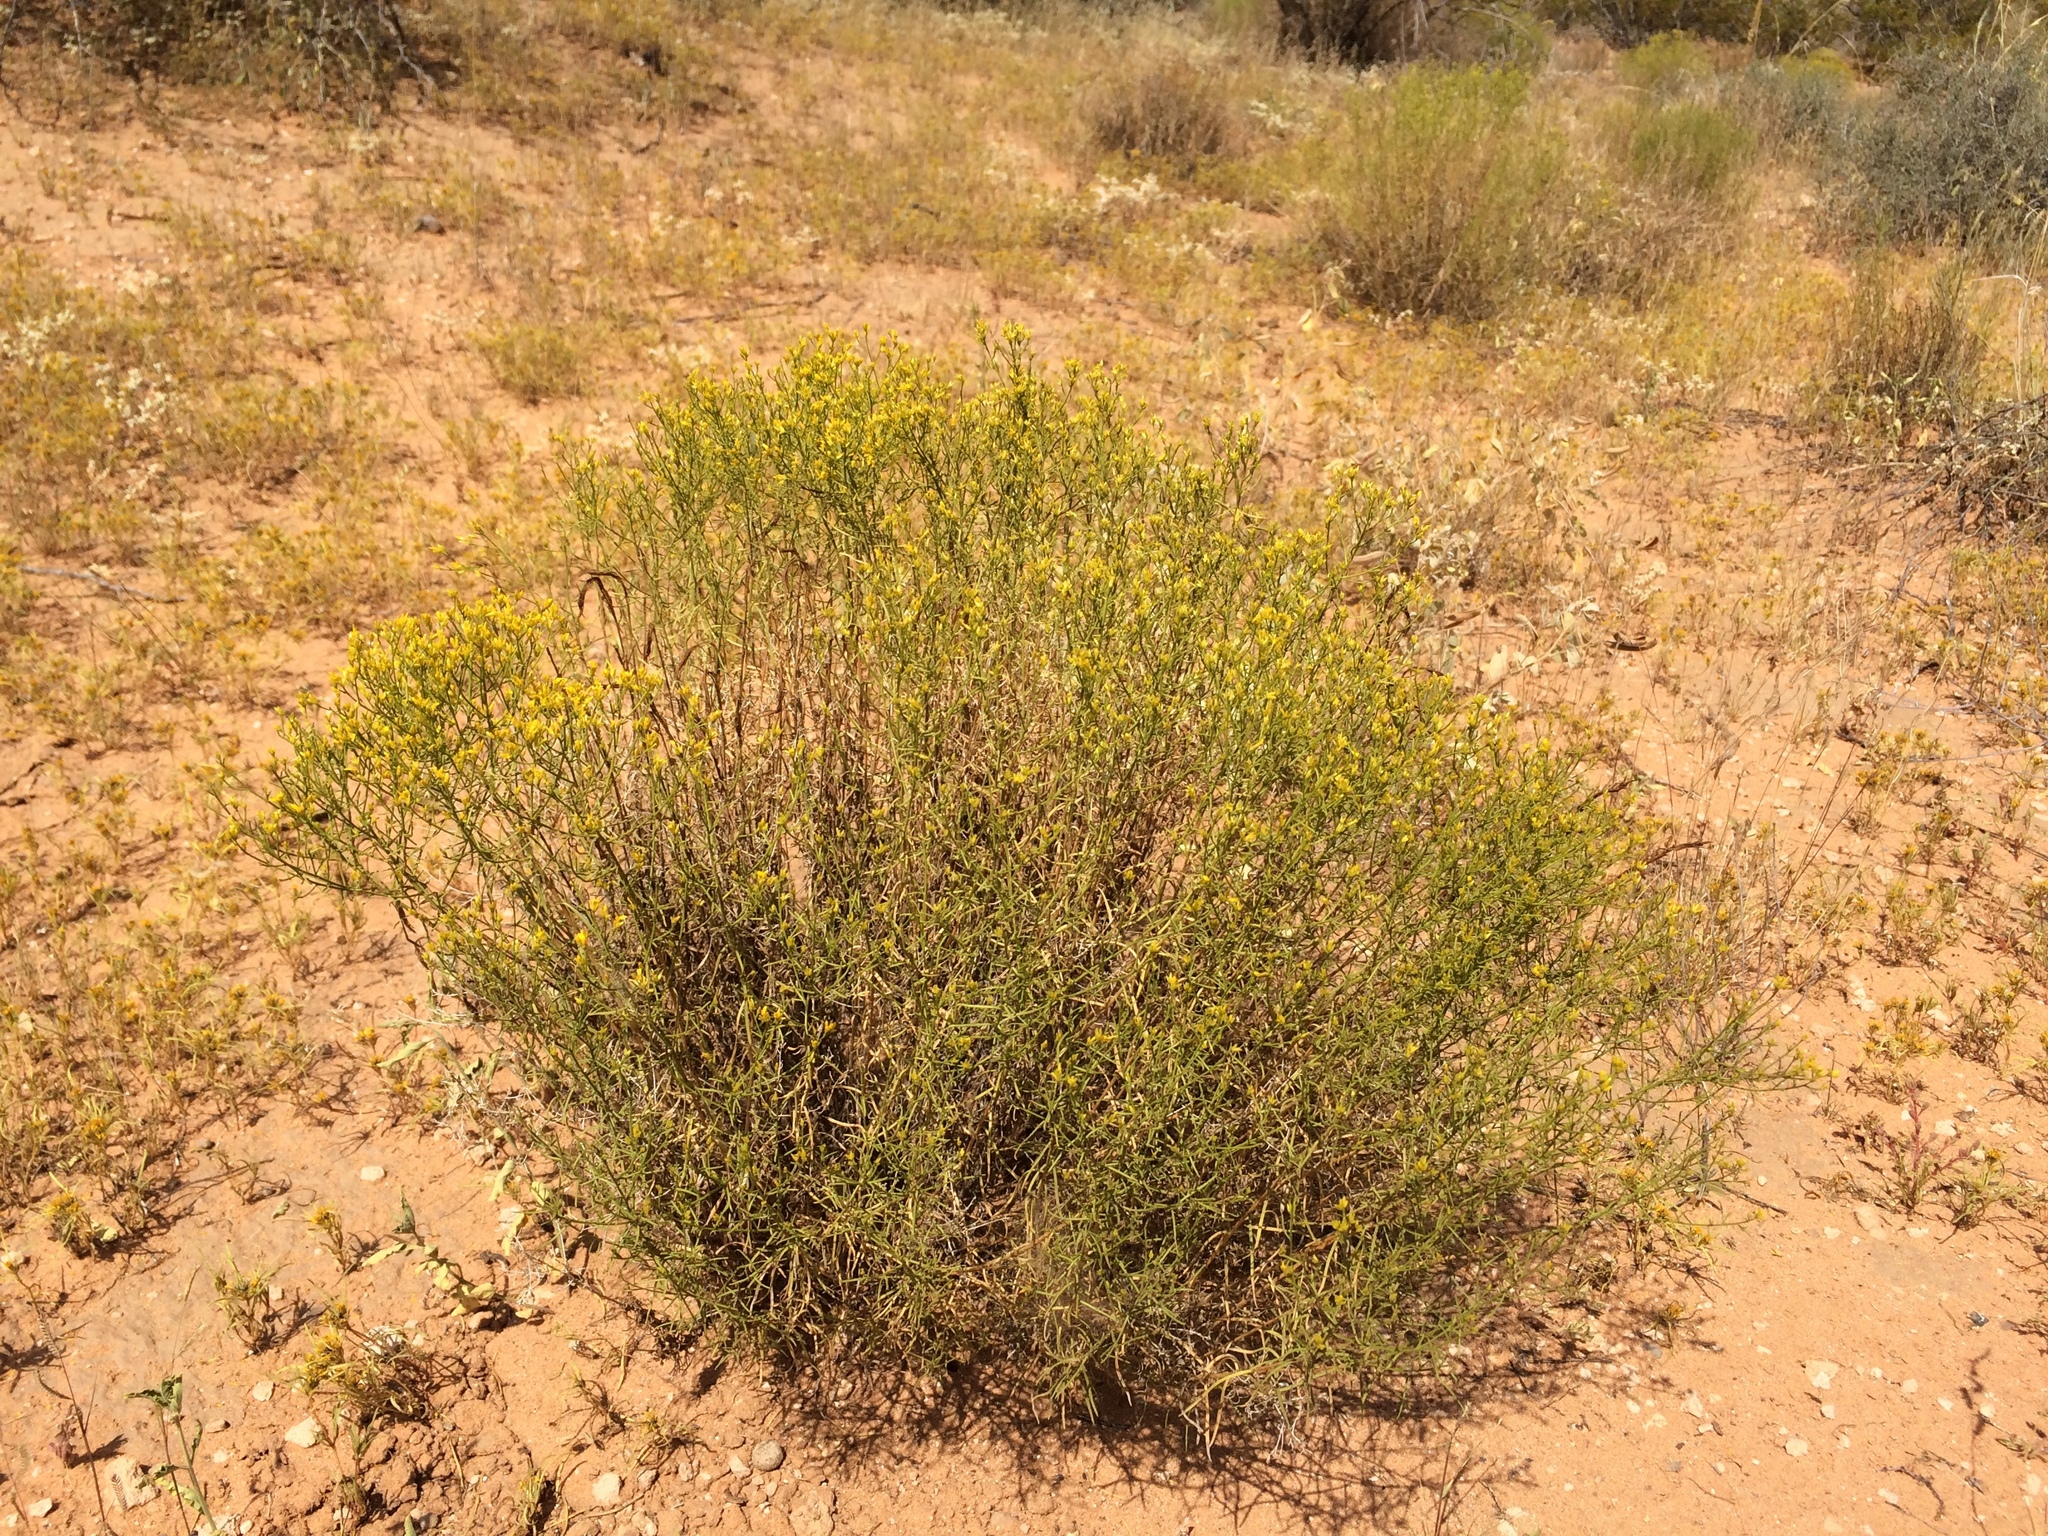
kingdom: Plantae
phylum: Tracheophyta
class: Magnoliopsida
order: Asterales
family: Asteraceae
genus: Gutierrezia
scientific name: Gutierrezia microcephala
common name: Thread snakeweed
